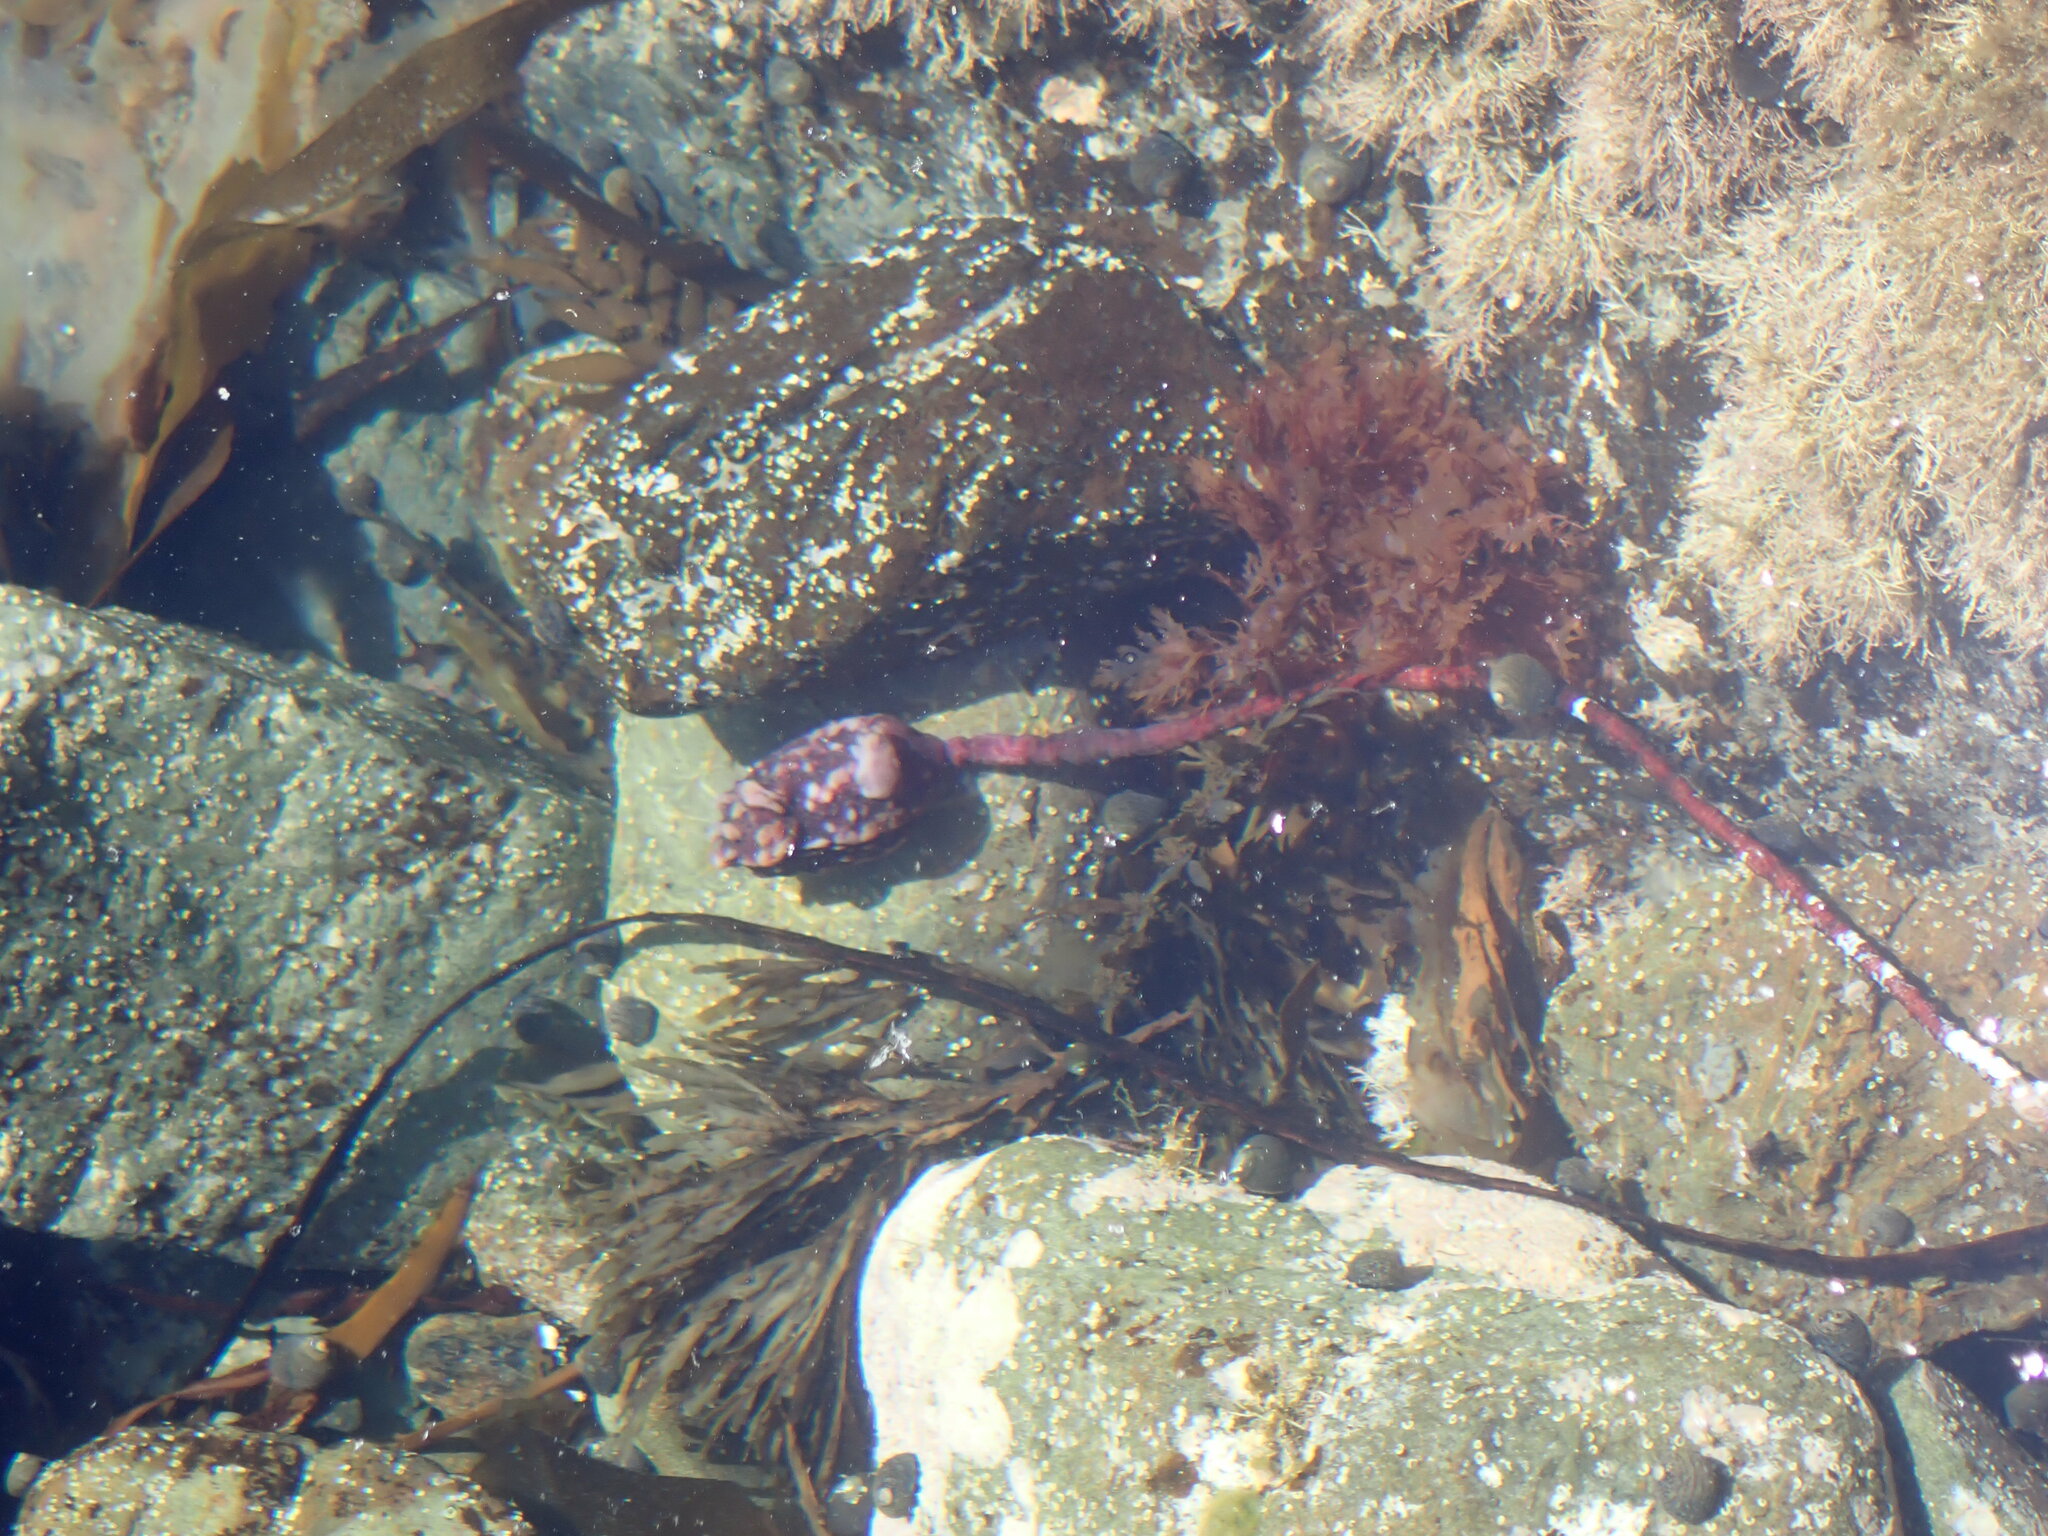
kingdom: Animalia
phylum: Chordata
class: Ascidiacea
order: Stolidobranchia
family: Pyuridae
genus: Pyura
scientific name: Pyura pachydermatina
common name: Sea tulip
